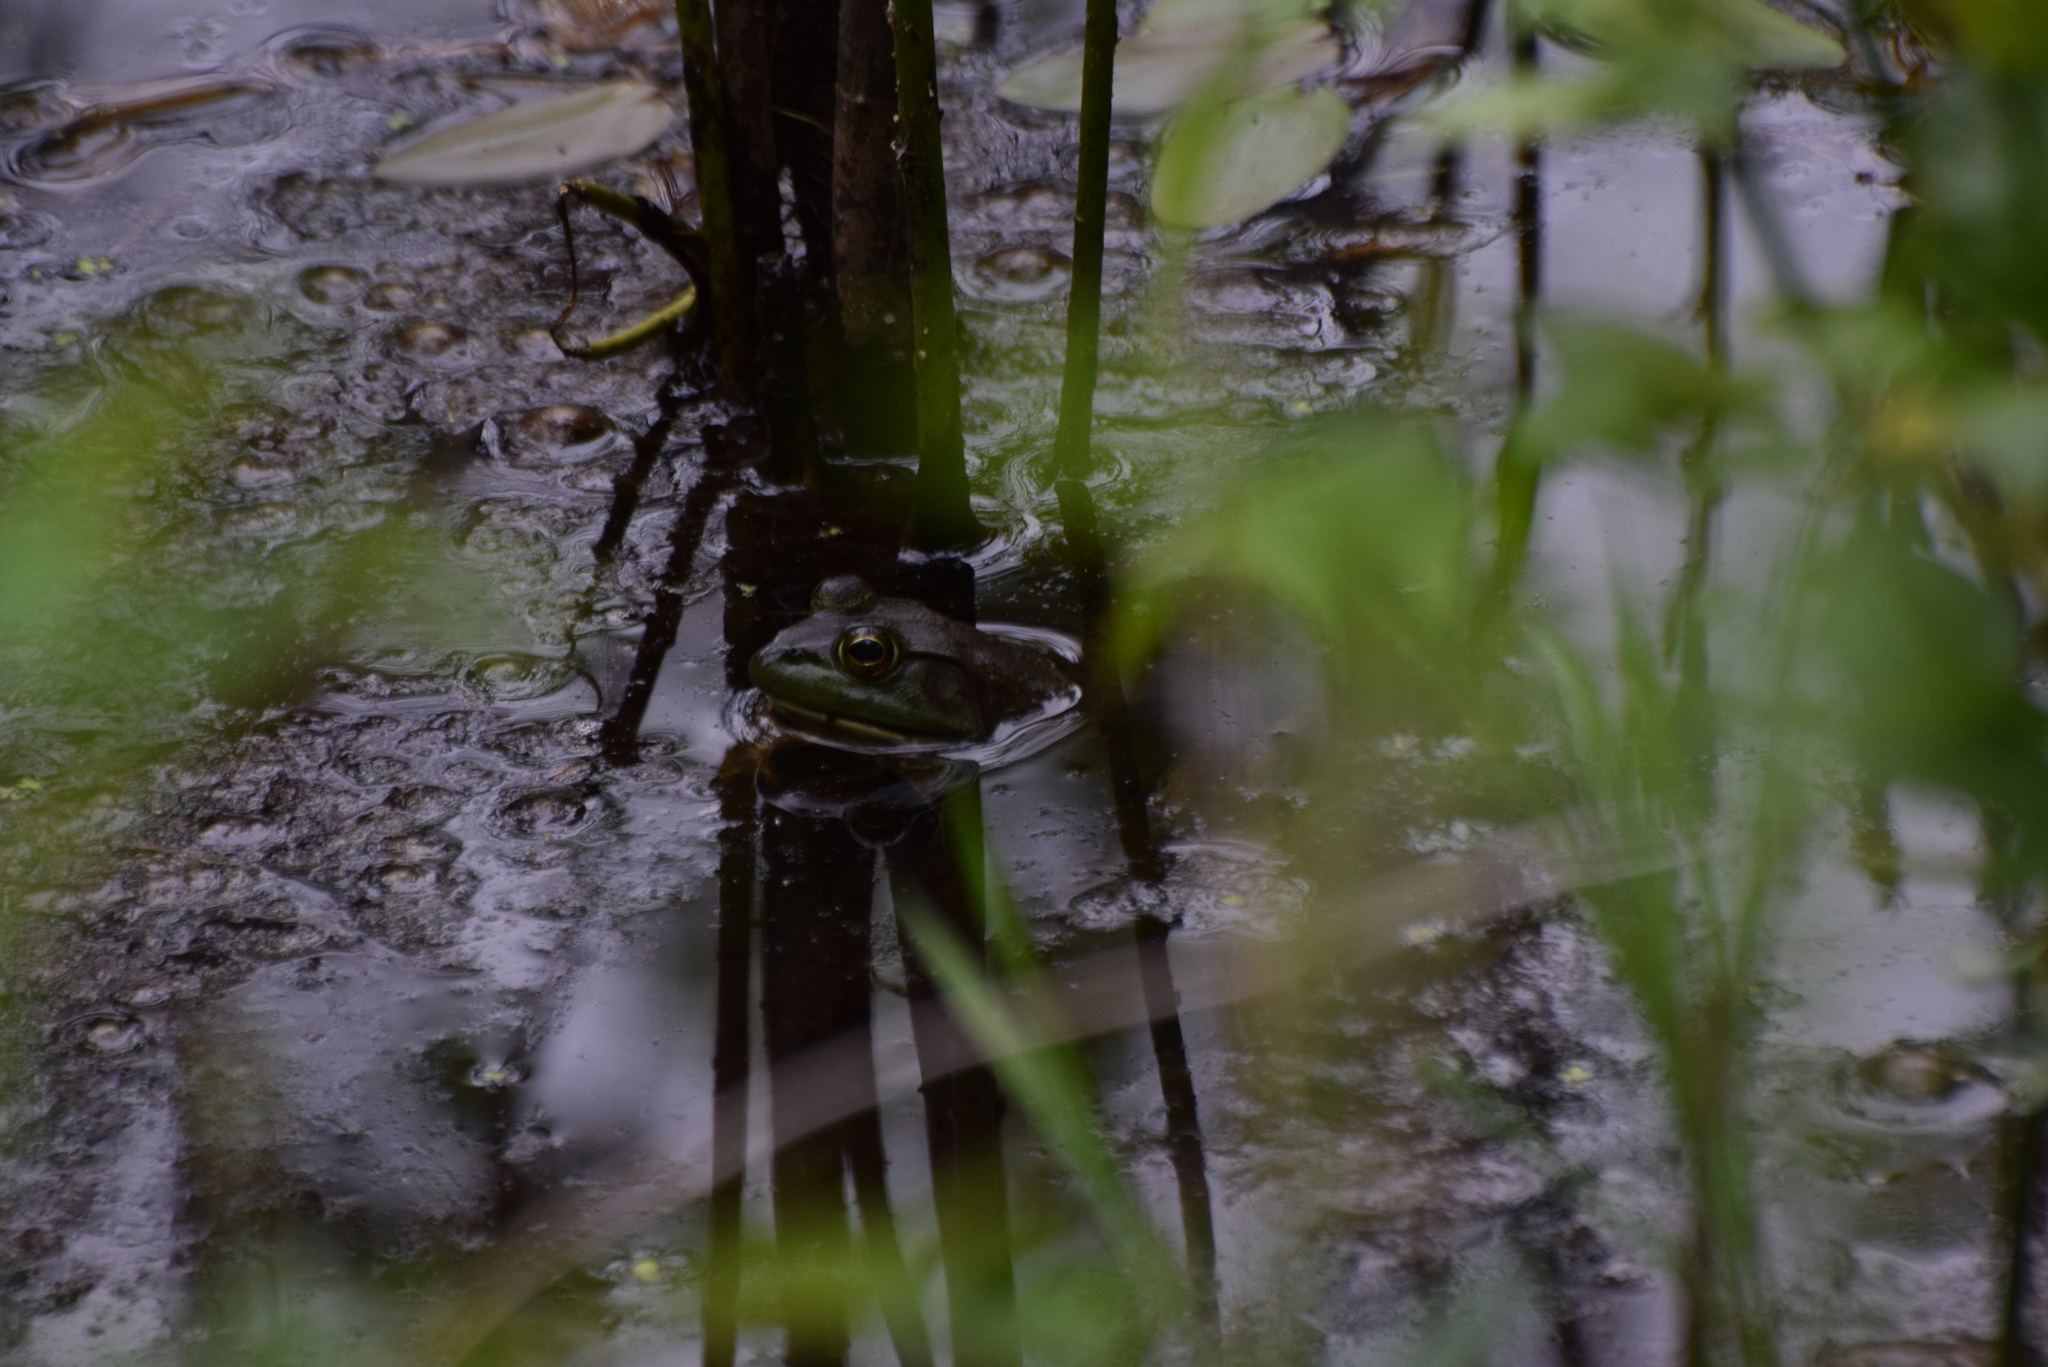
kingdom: Animalia
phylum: Chordata
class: Amphibia
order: Anura
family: Ranidae
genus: Lithobates
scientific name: Lithobates catesbeianus
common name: American bullfrog
